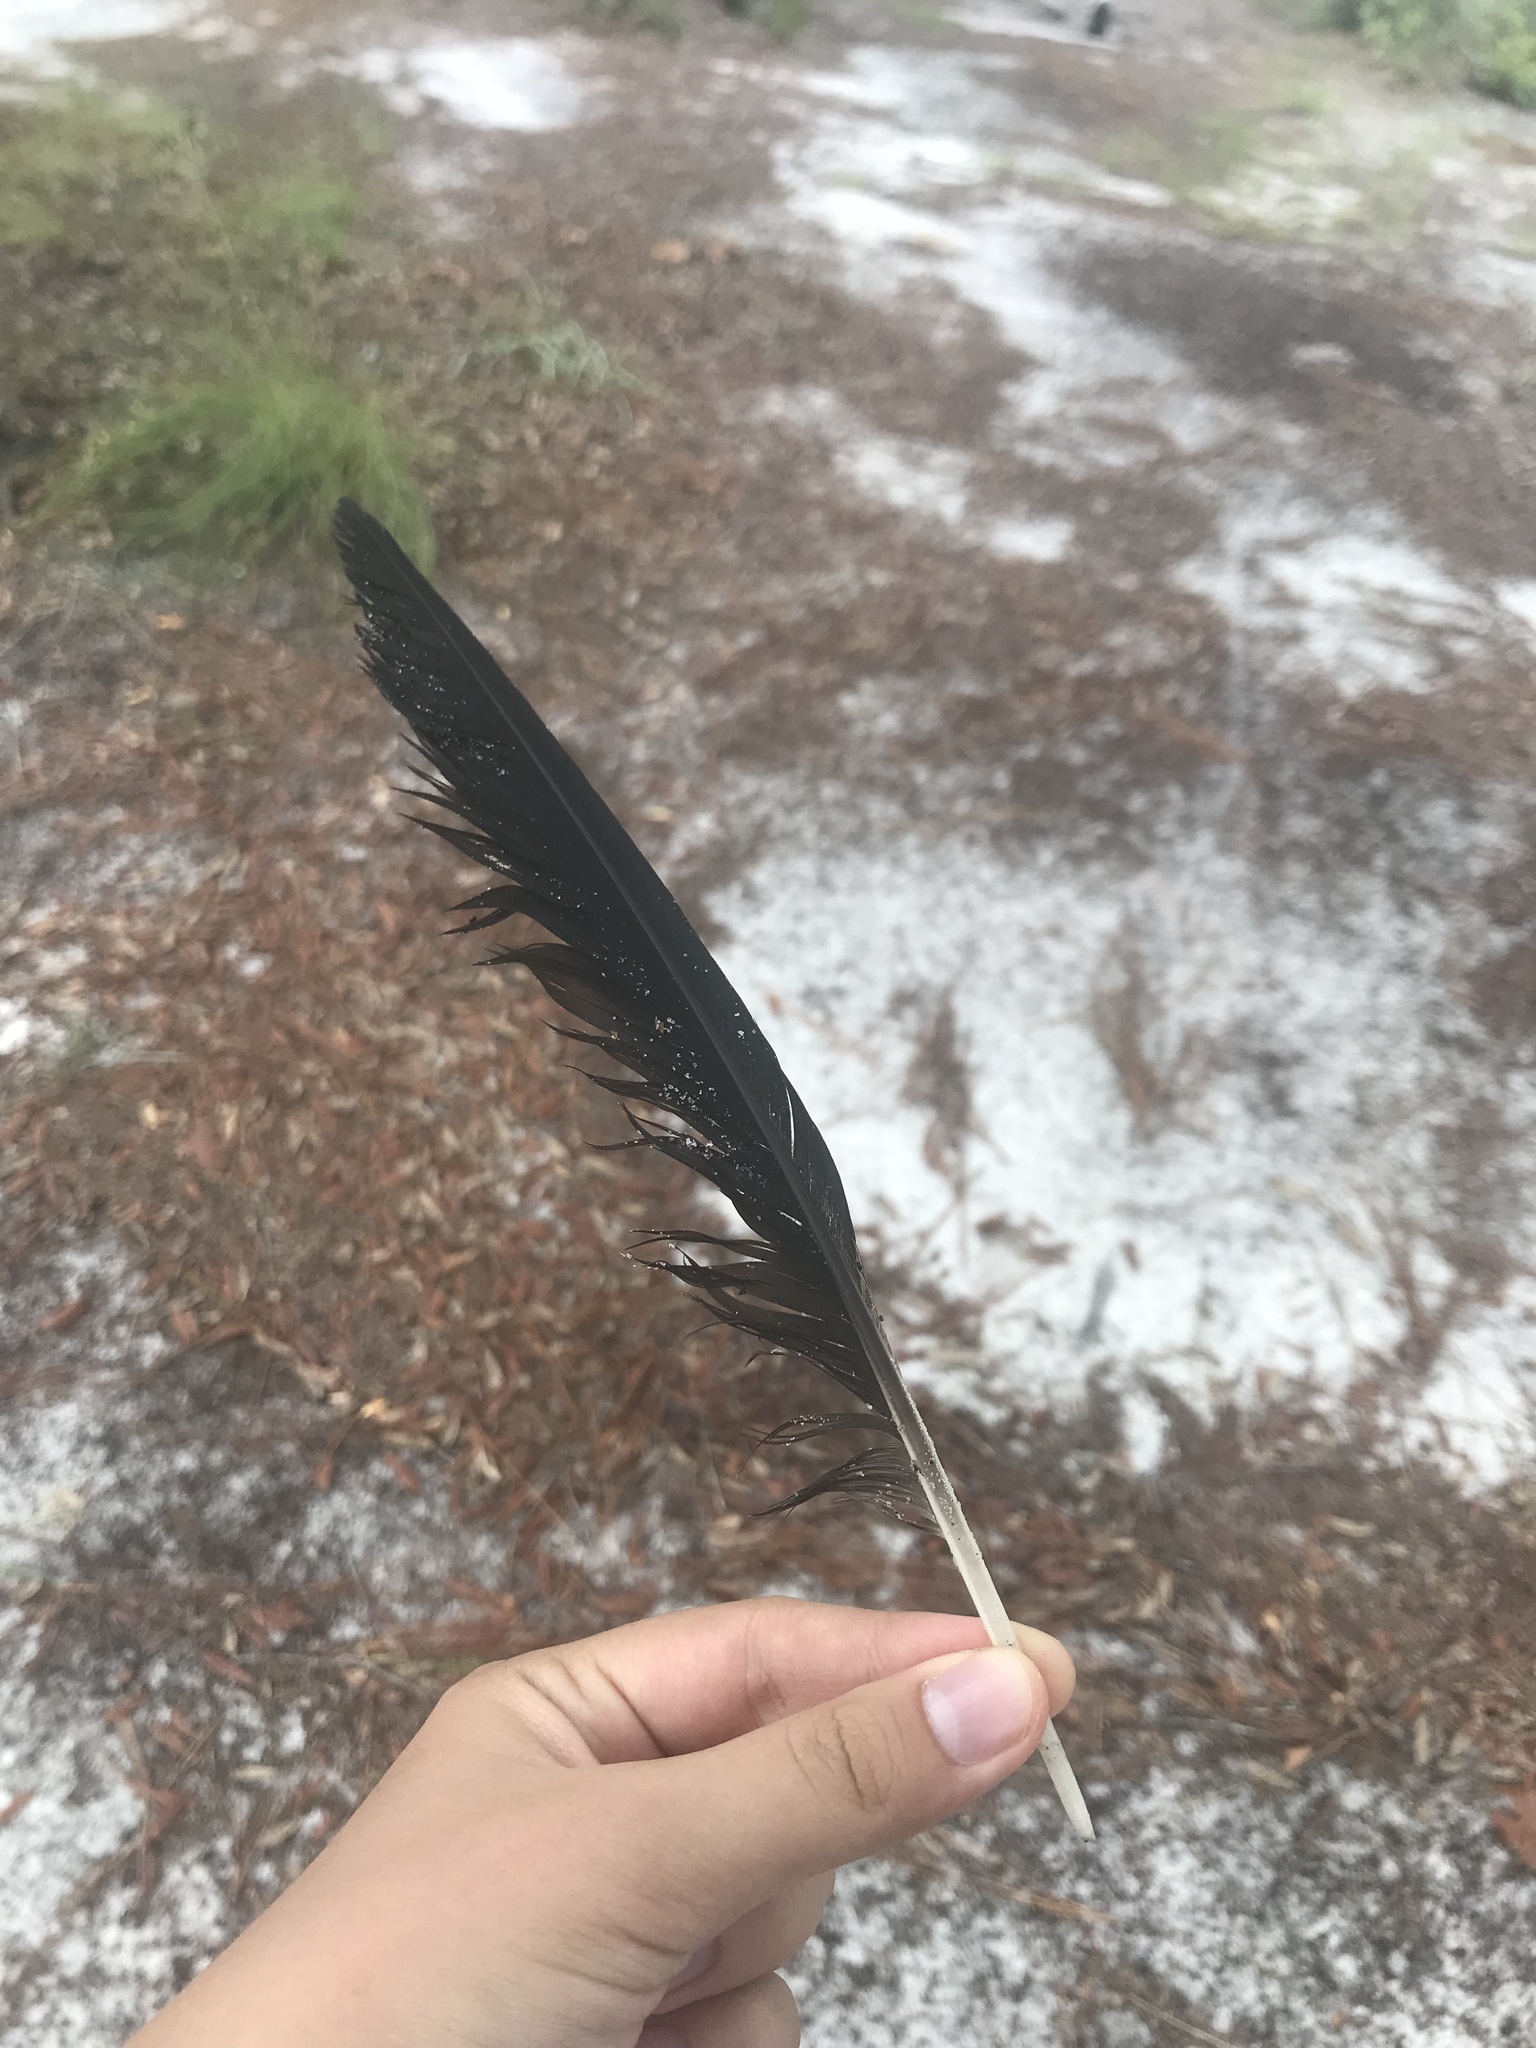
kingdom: Animalia
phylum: Chordata
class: Aves
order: Passeriformes
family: Corvidae
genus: Corvus
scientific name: Corvus ossifragus
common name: Fish crow
